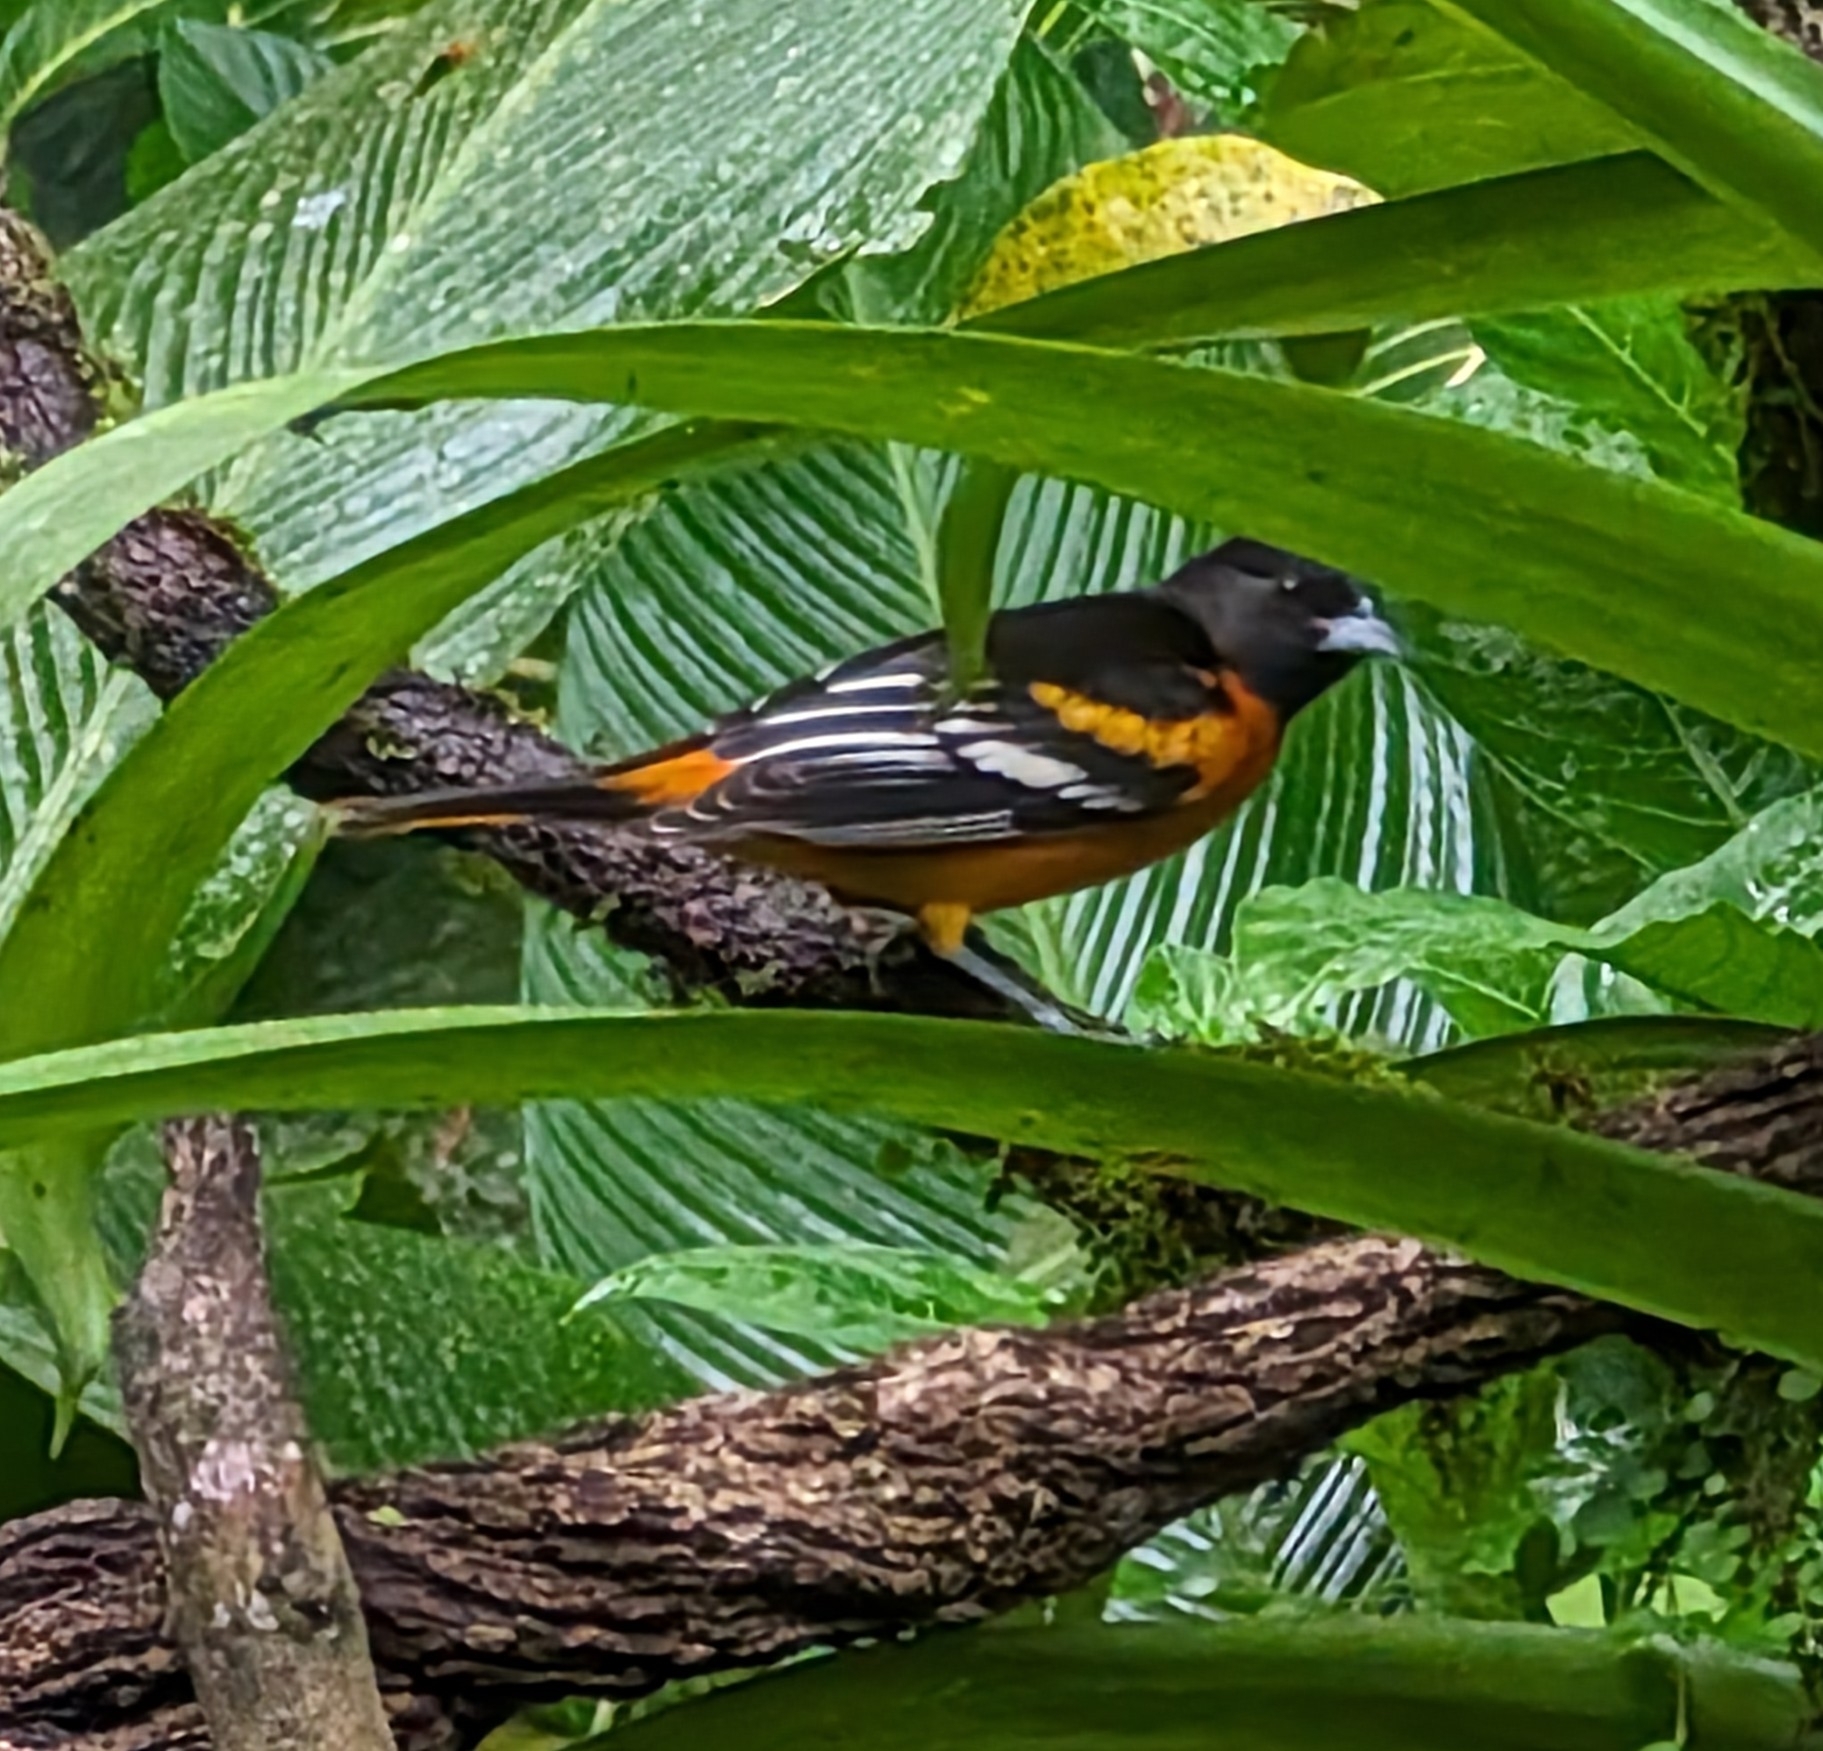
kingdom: Animalia
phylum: Chordata
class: Aves
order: Passeriformes
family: Icteridae
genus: Icterus
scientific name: Icterus galbula
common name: Baltimore oriole
